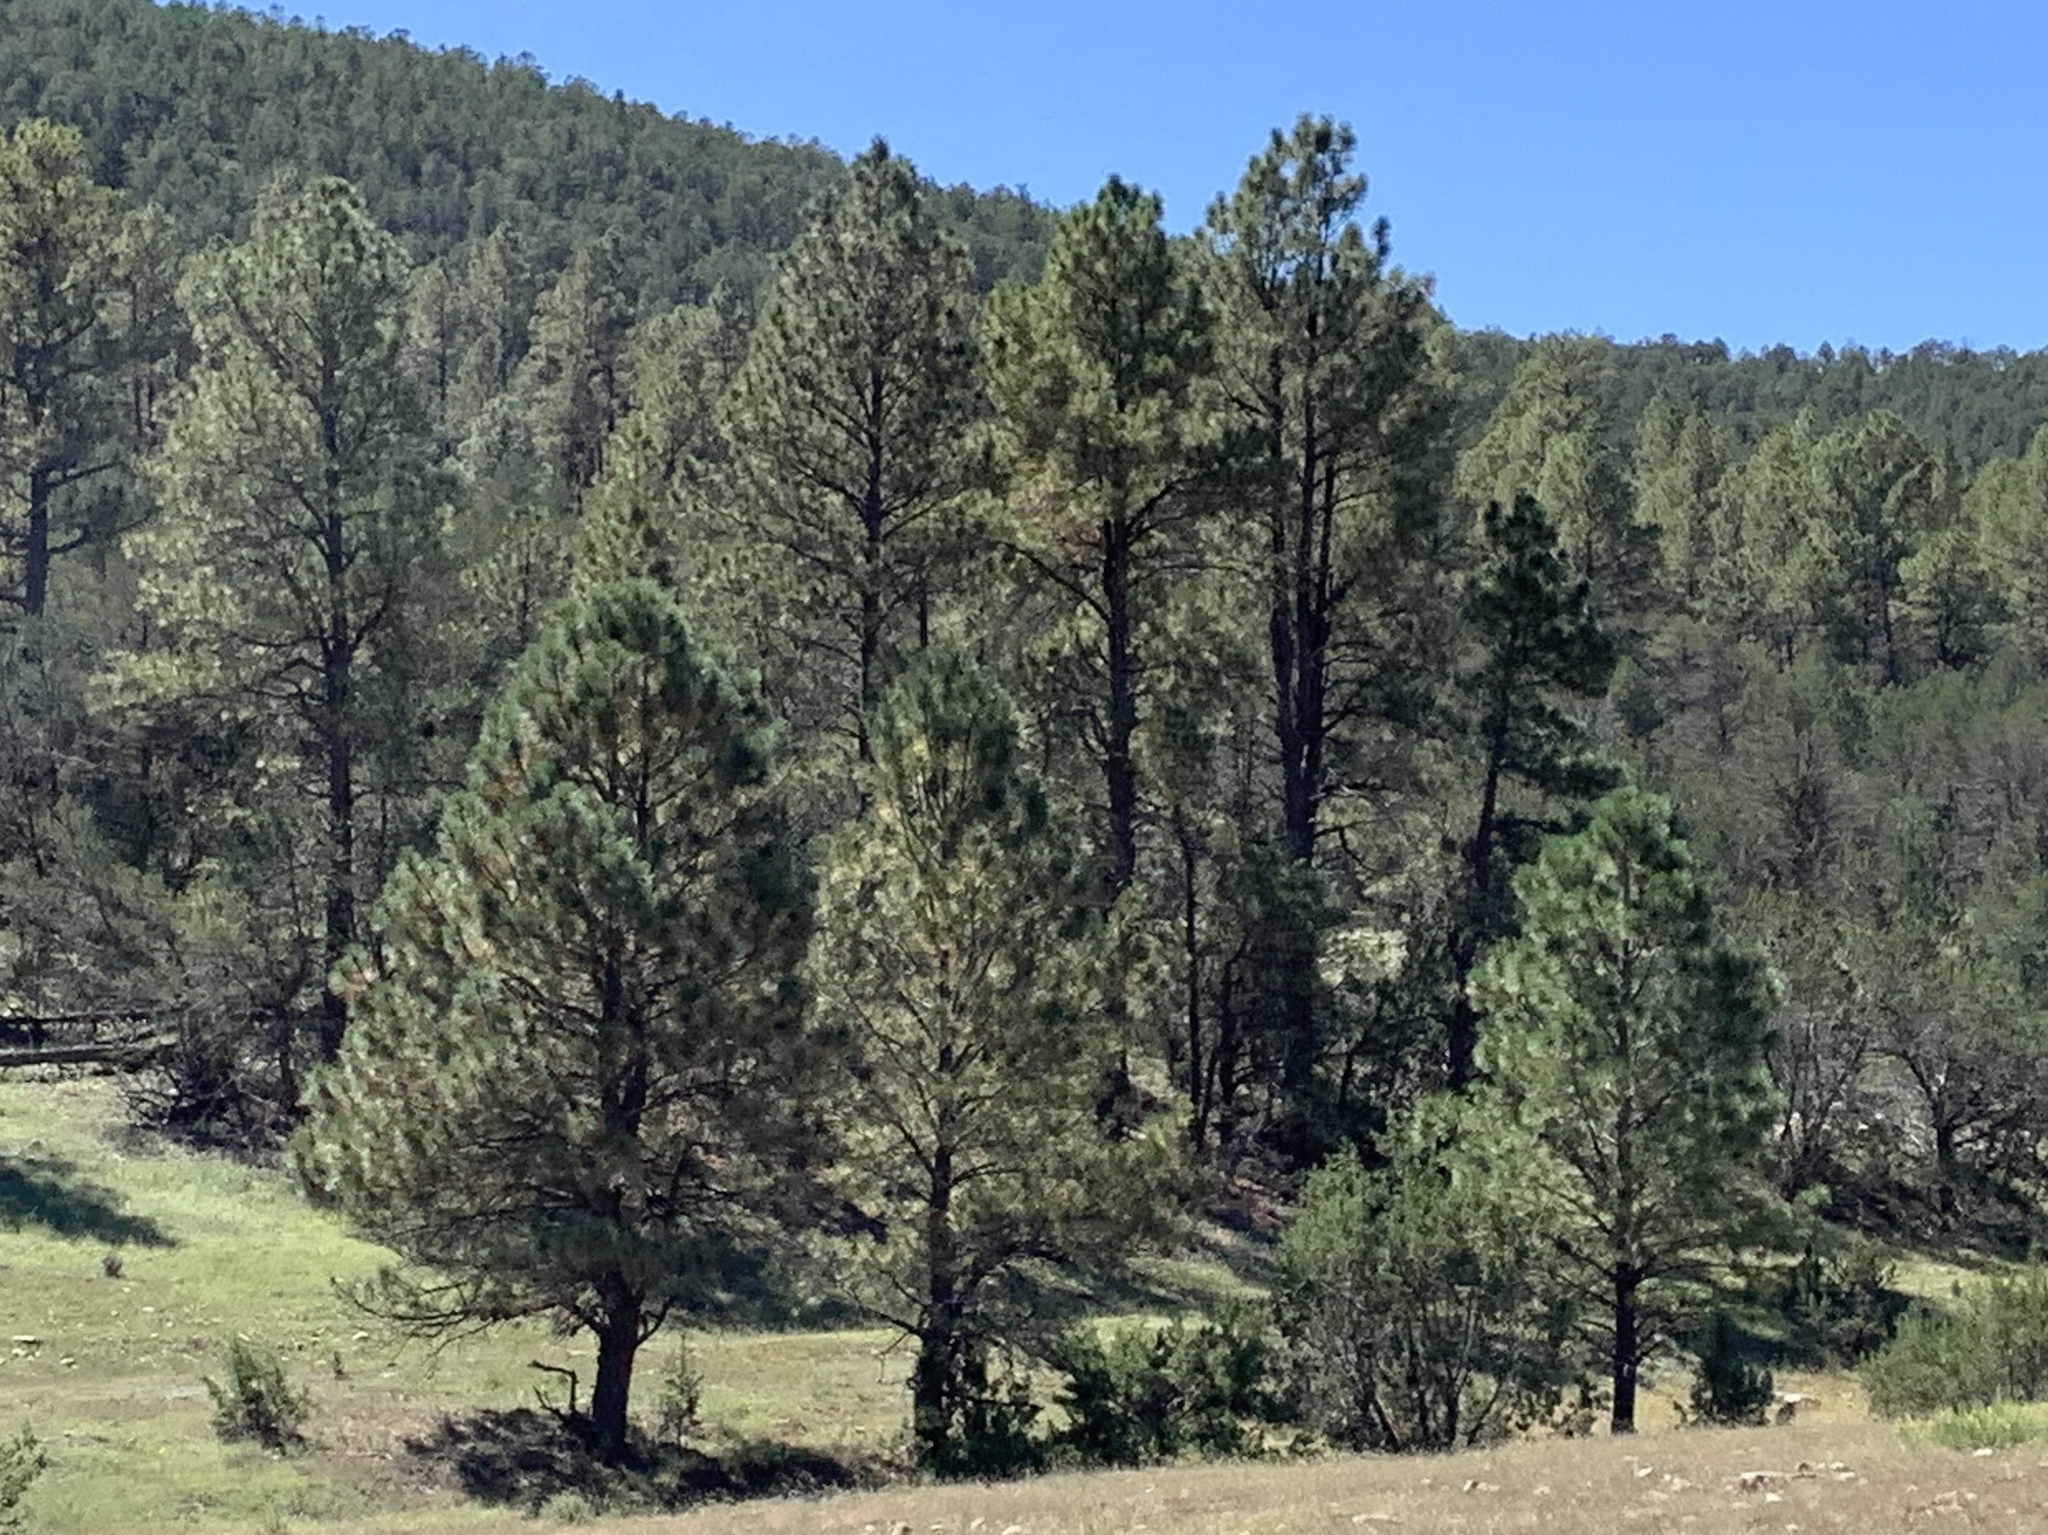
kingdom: Plantae
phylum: Tracheophyta
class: Pinopsida
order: Pinales
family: Pinaceae
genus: Pinus
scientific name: Pinus ponderosa
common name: Western yellow-pine
